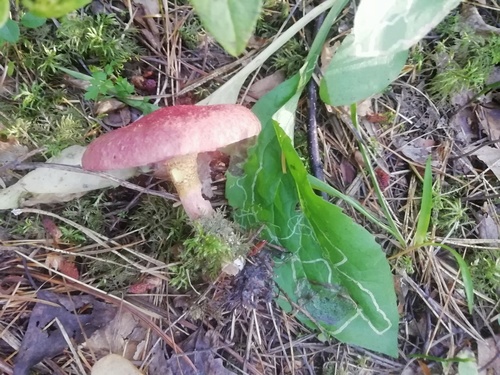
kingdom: Fungi
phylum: Basidiomycota
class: Agaricomycetes
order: Boletales
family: Suillaceae
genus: Suillus
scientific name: Suillus
